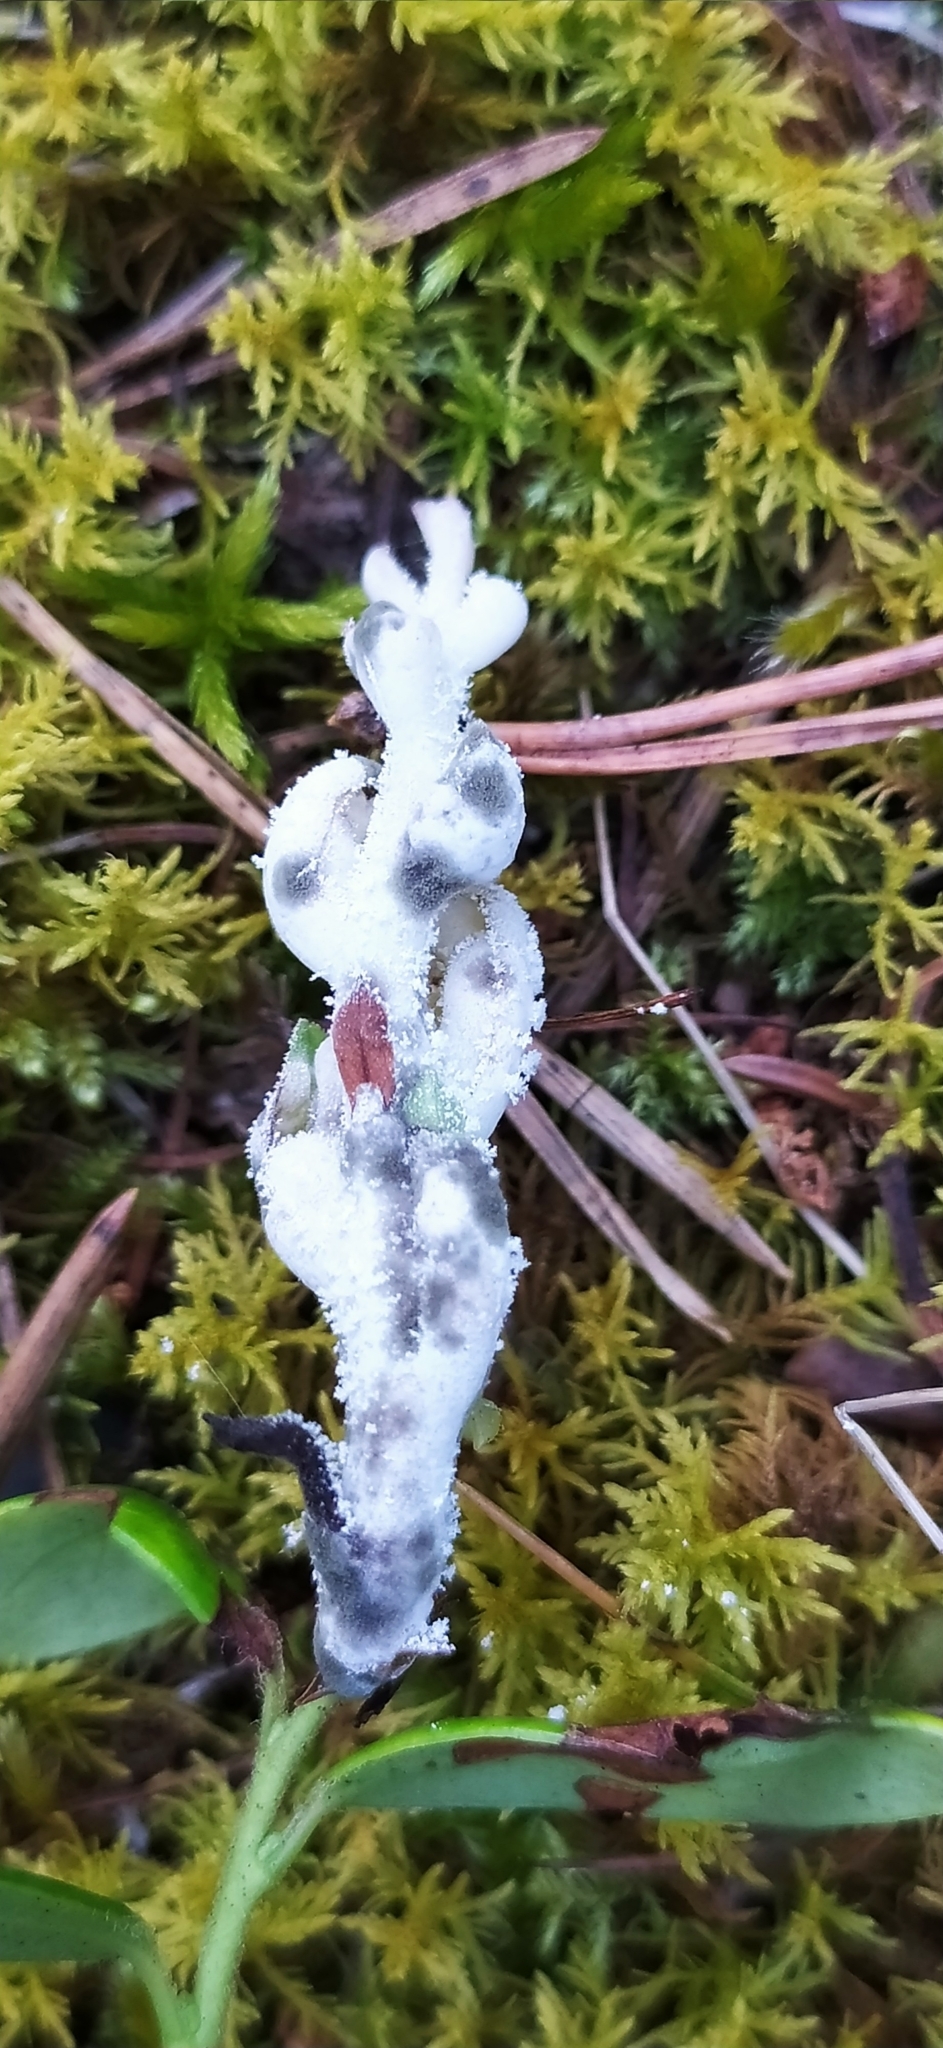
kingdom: Fungi
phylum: Basidiomycota
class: Exobasidiomycetes
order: Exobasidiales
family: Exobasidiaceae
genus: Exobasidium
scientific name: Exobasidium vaccinii
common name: Cowberry redleaf
